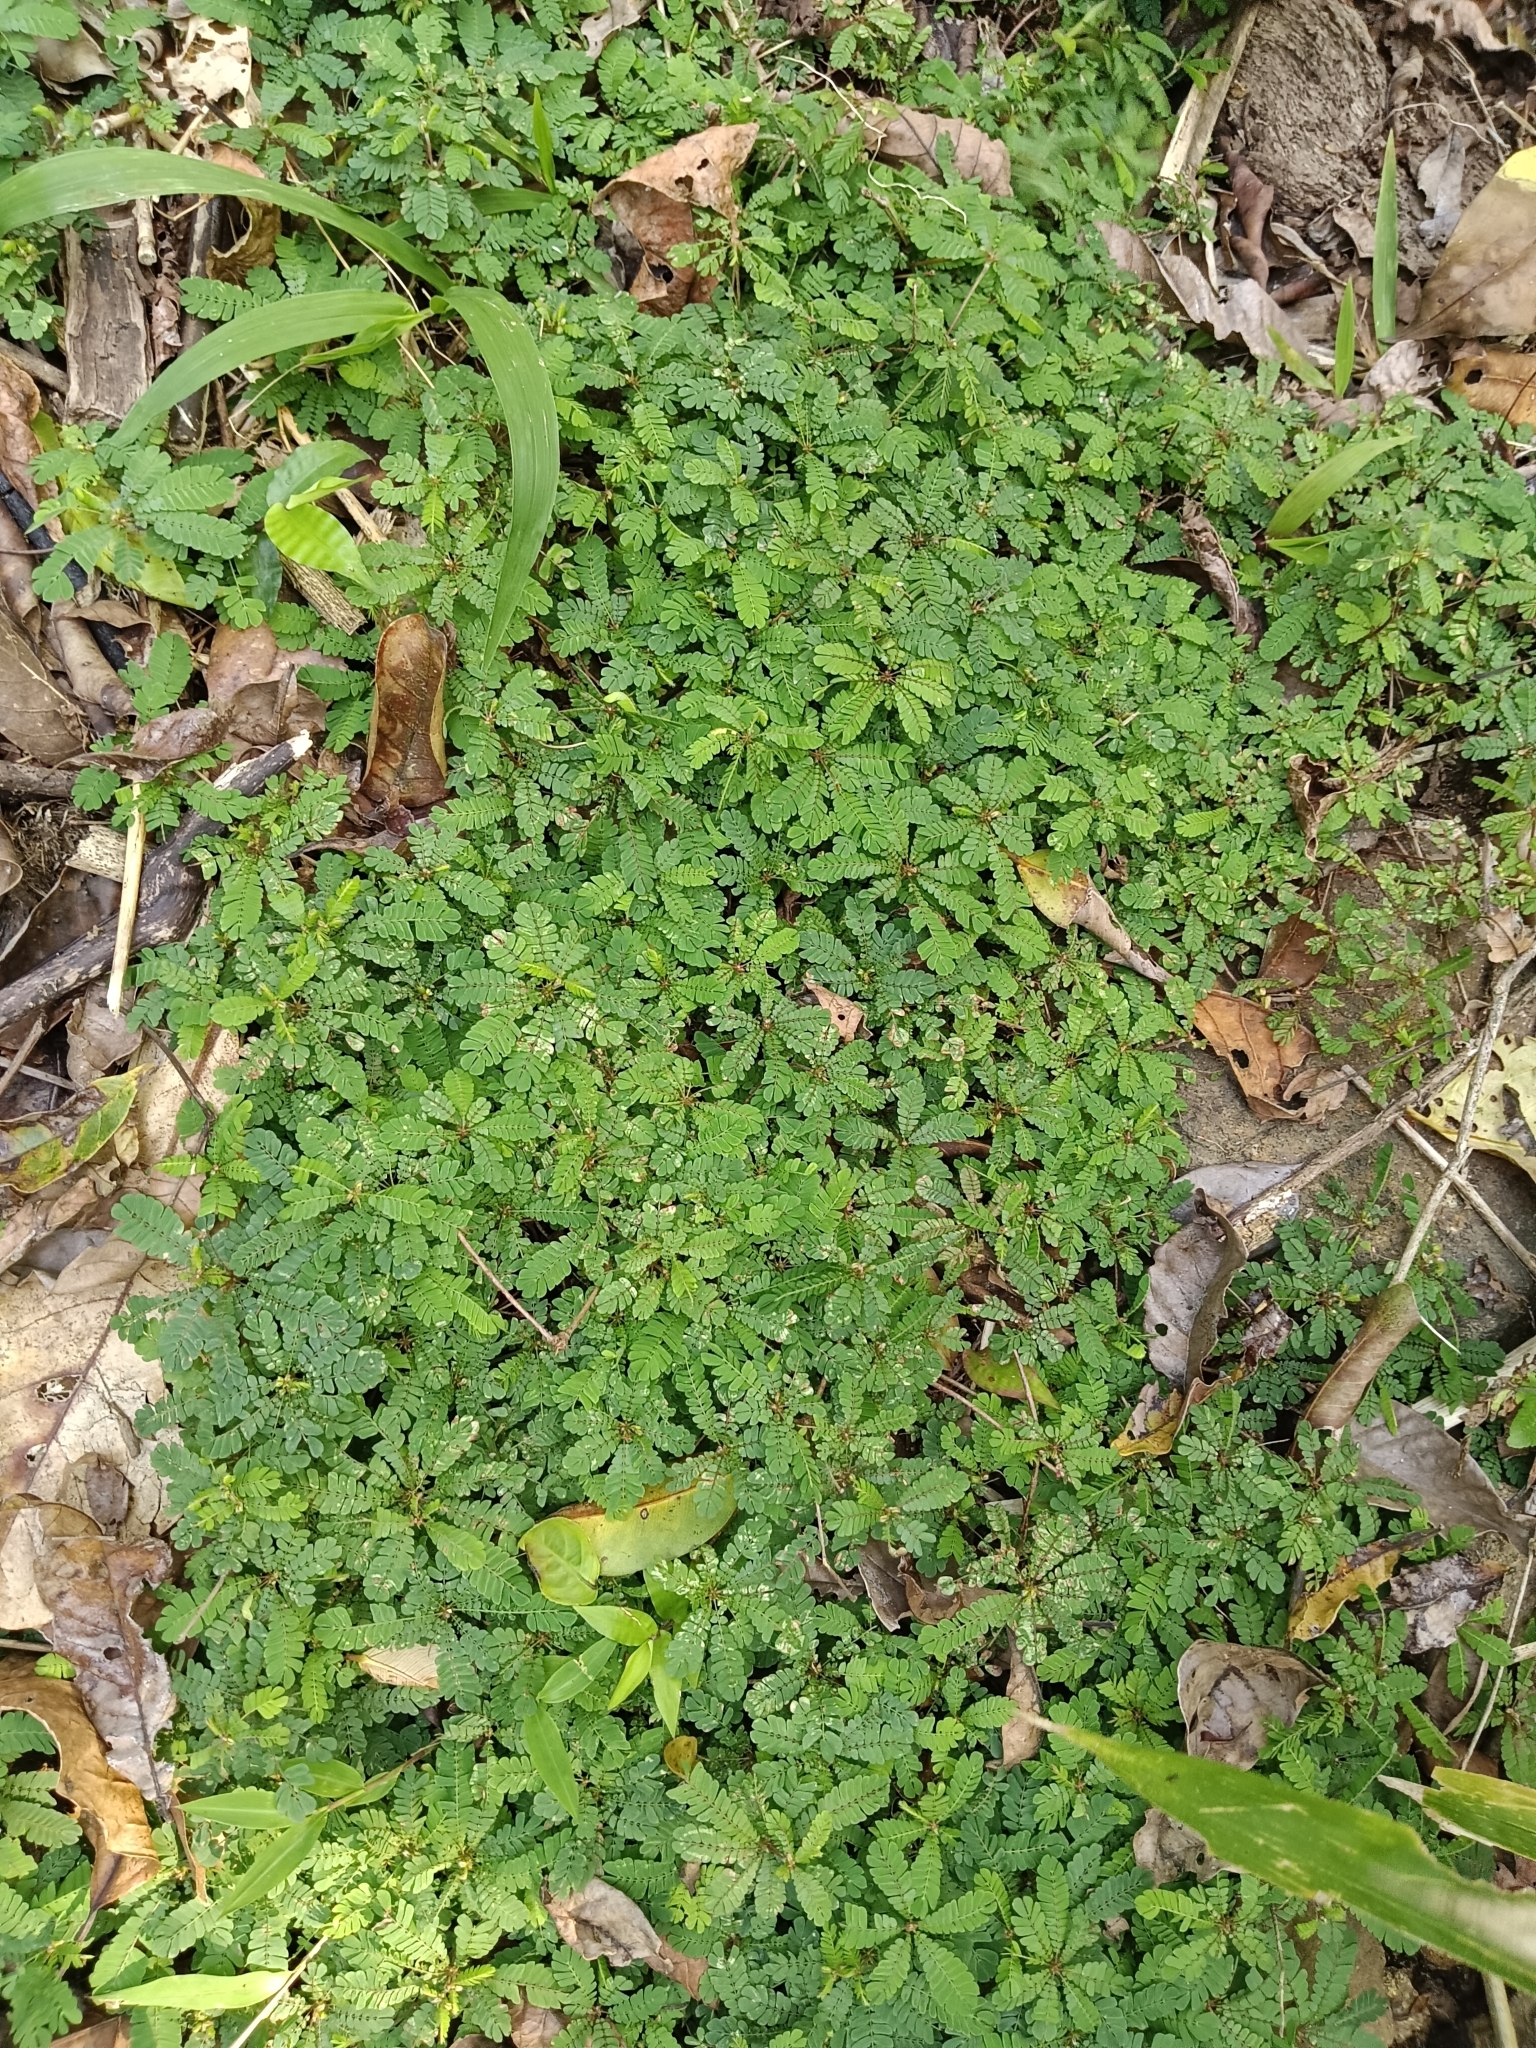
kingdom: Plantae
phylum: Tracheophyta
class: Magnoliopsida
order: Oxalidales
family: Oxalidaceae
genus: Biophytum
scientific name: Biophytum sensitivum
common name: Lifeplant
